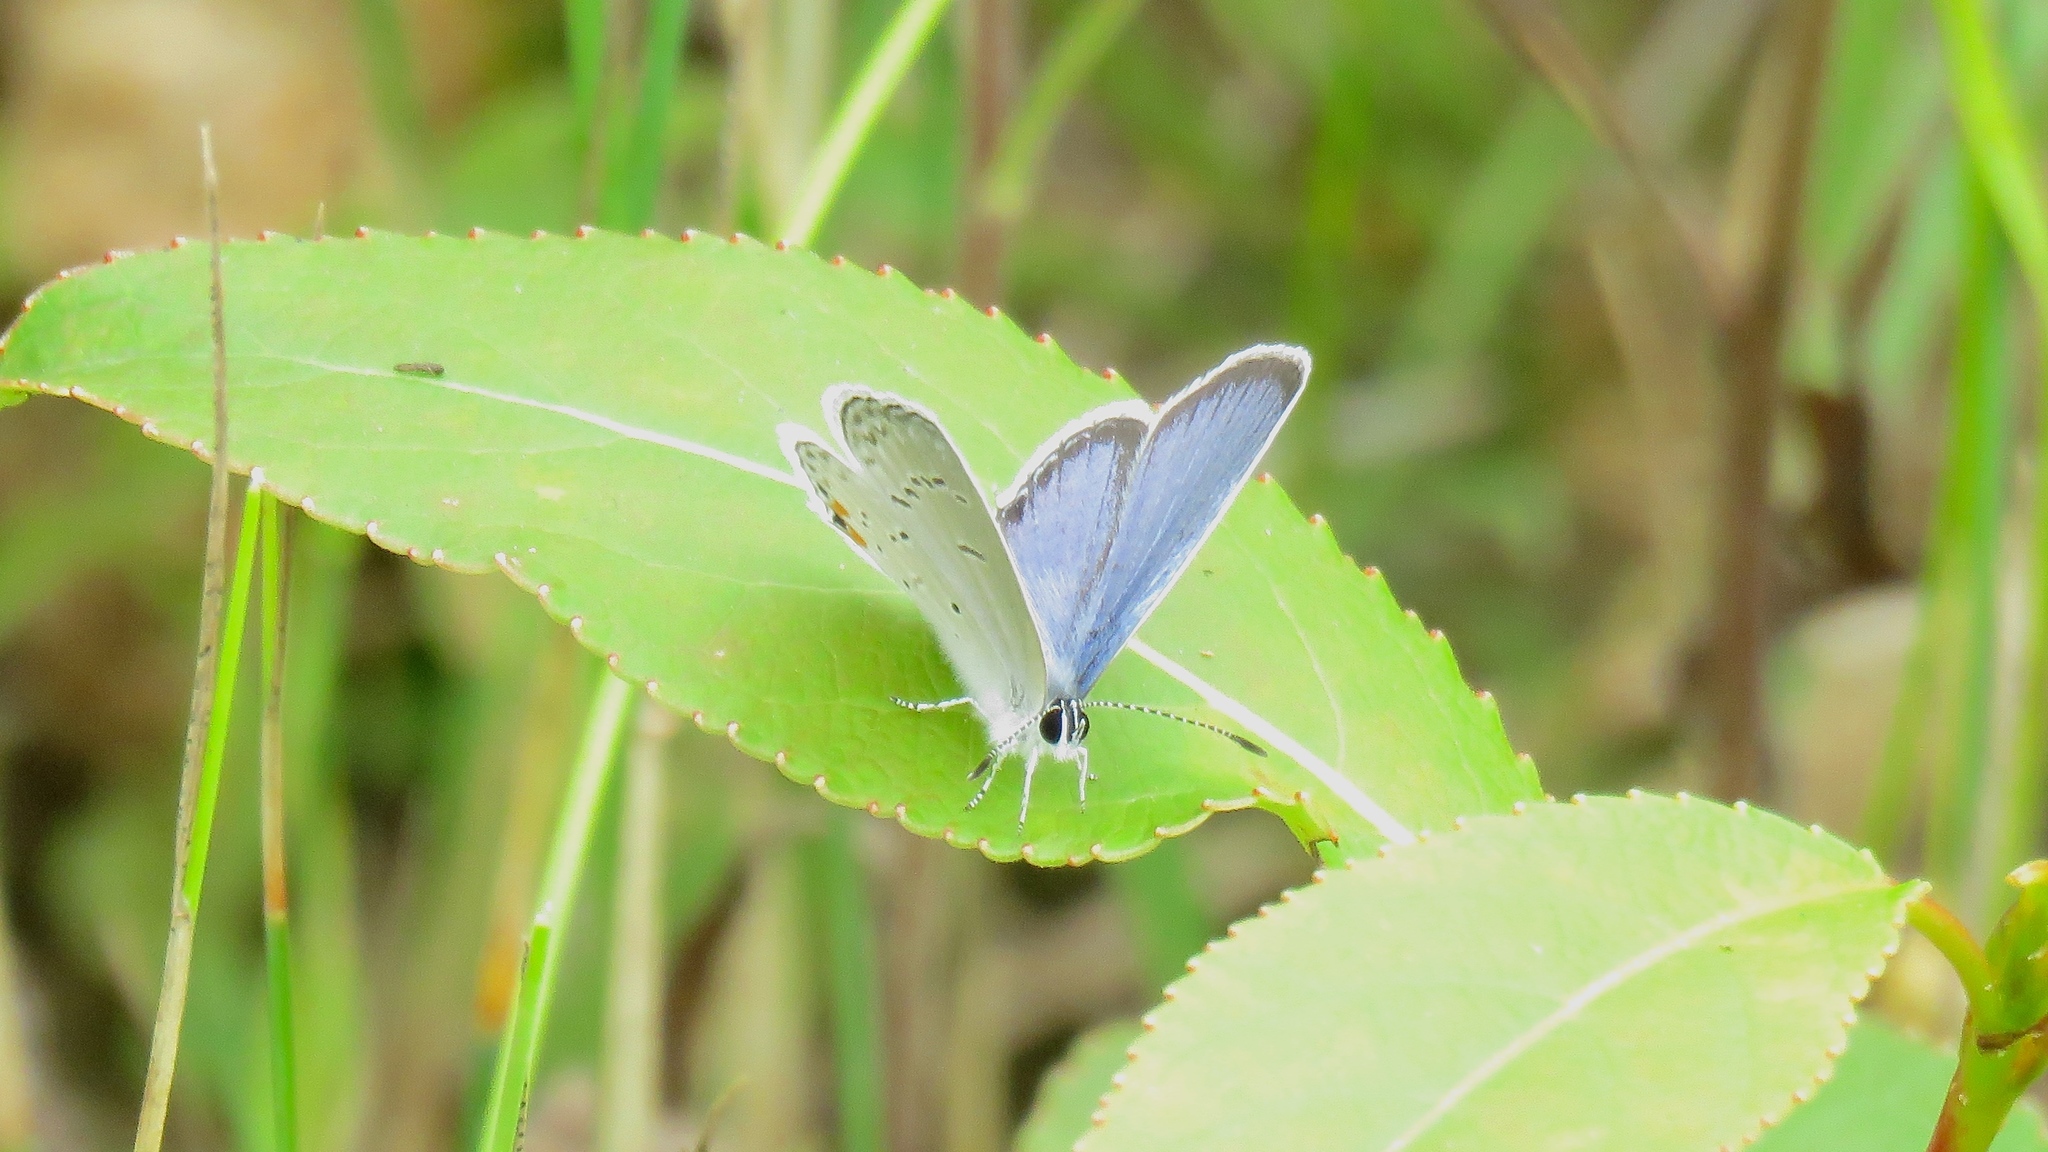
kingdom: Animalia
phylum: Arthropoda
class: Insecta
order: Lepidoptera
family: Lycaenidae
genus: Elkalyce
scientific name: Elkalyce comyntas
